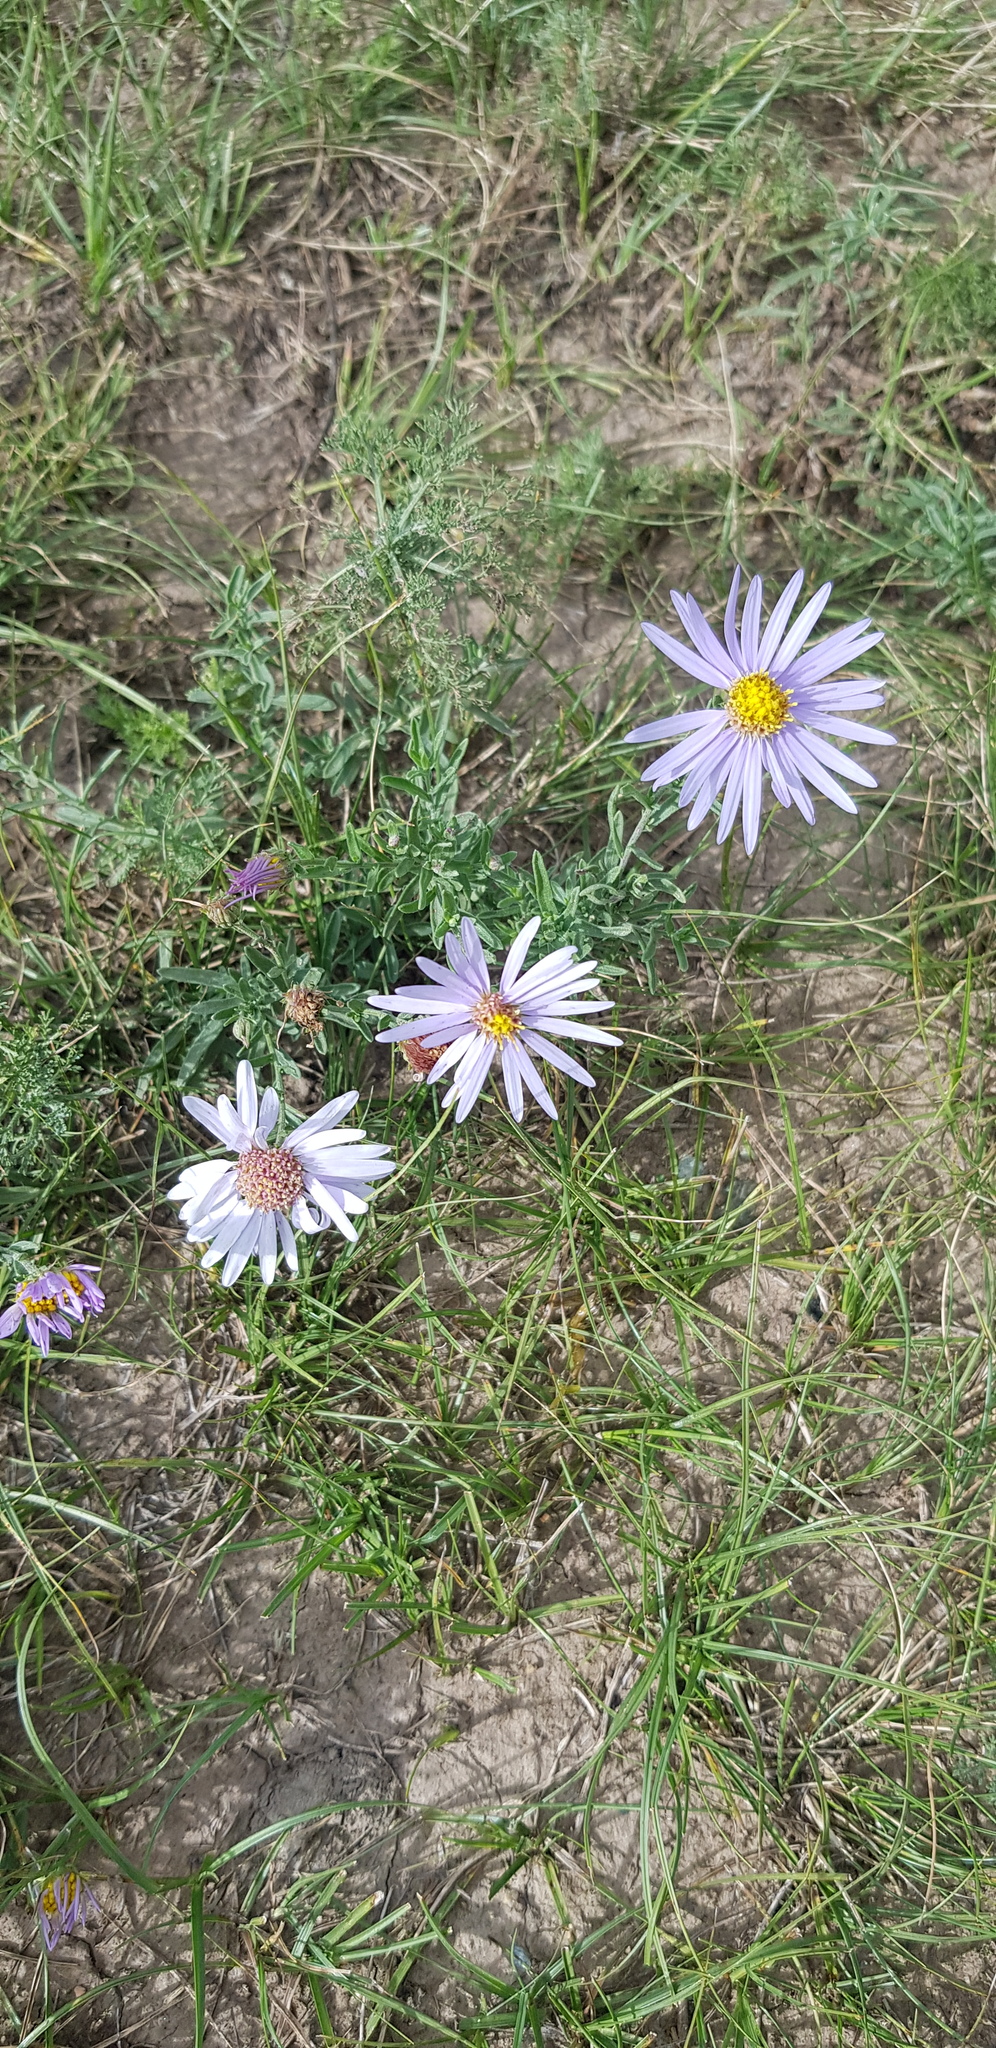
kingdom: Plantae
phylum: Tracheophyta
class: Magnoliopsida
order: Asterales
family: Asteraceae
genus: Heteropappus
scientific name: Heteropappus altaicus
